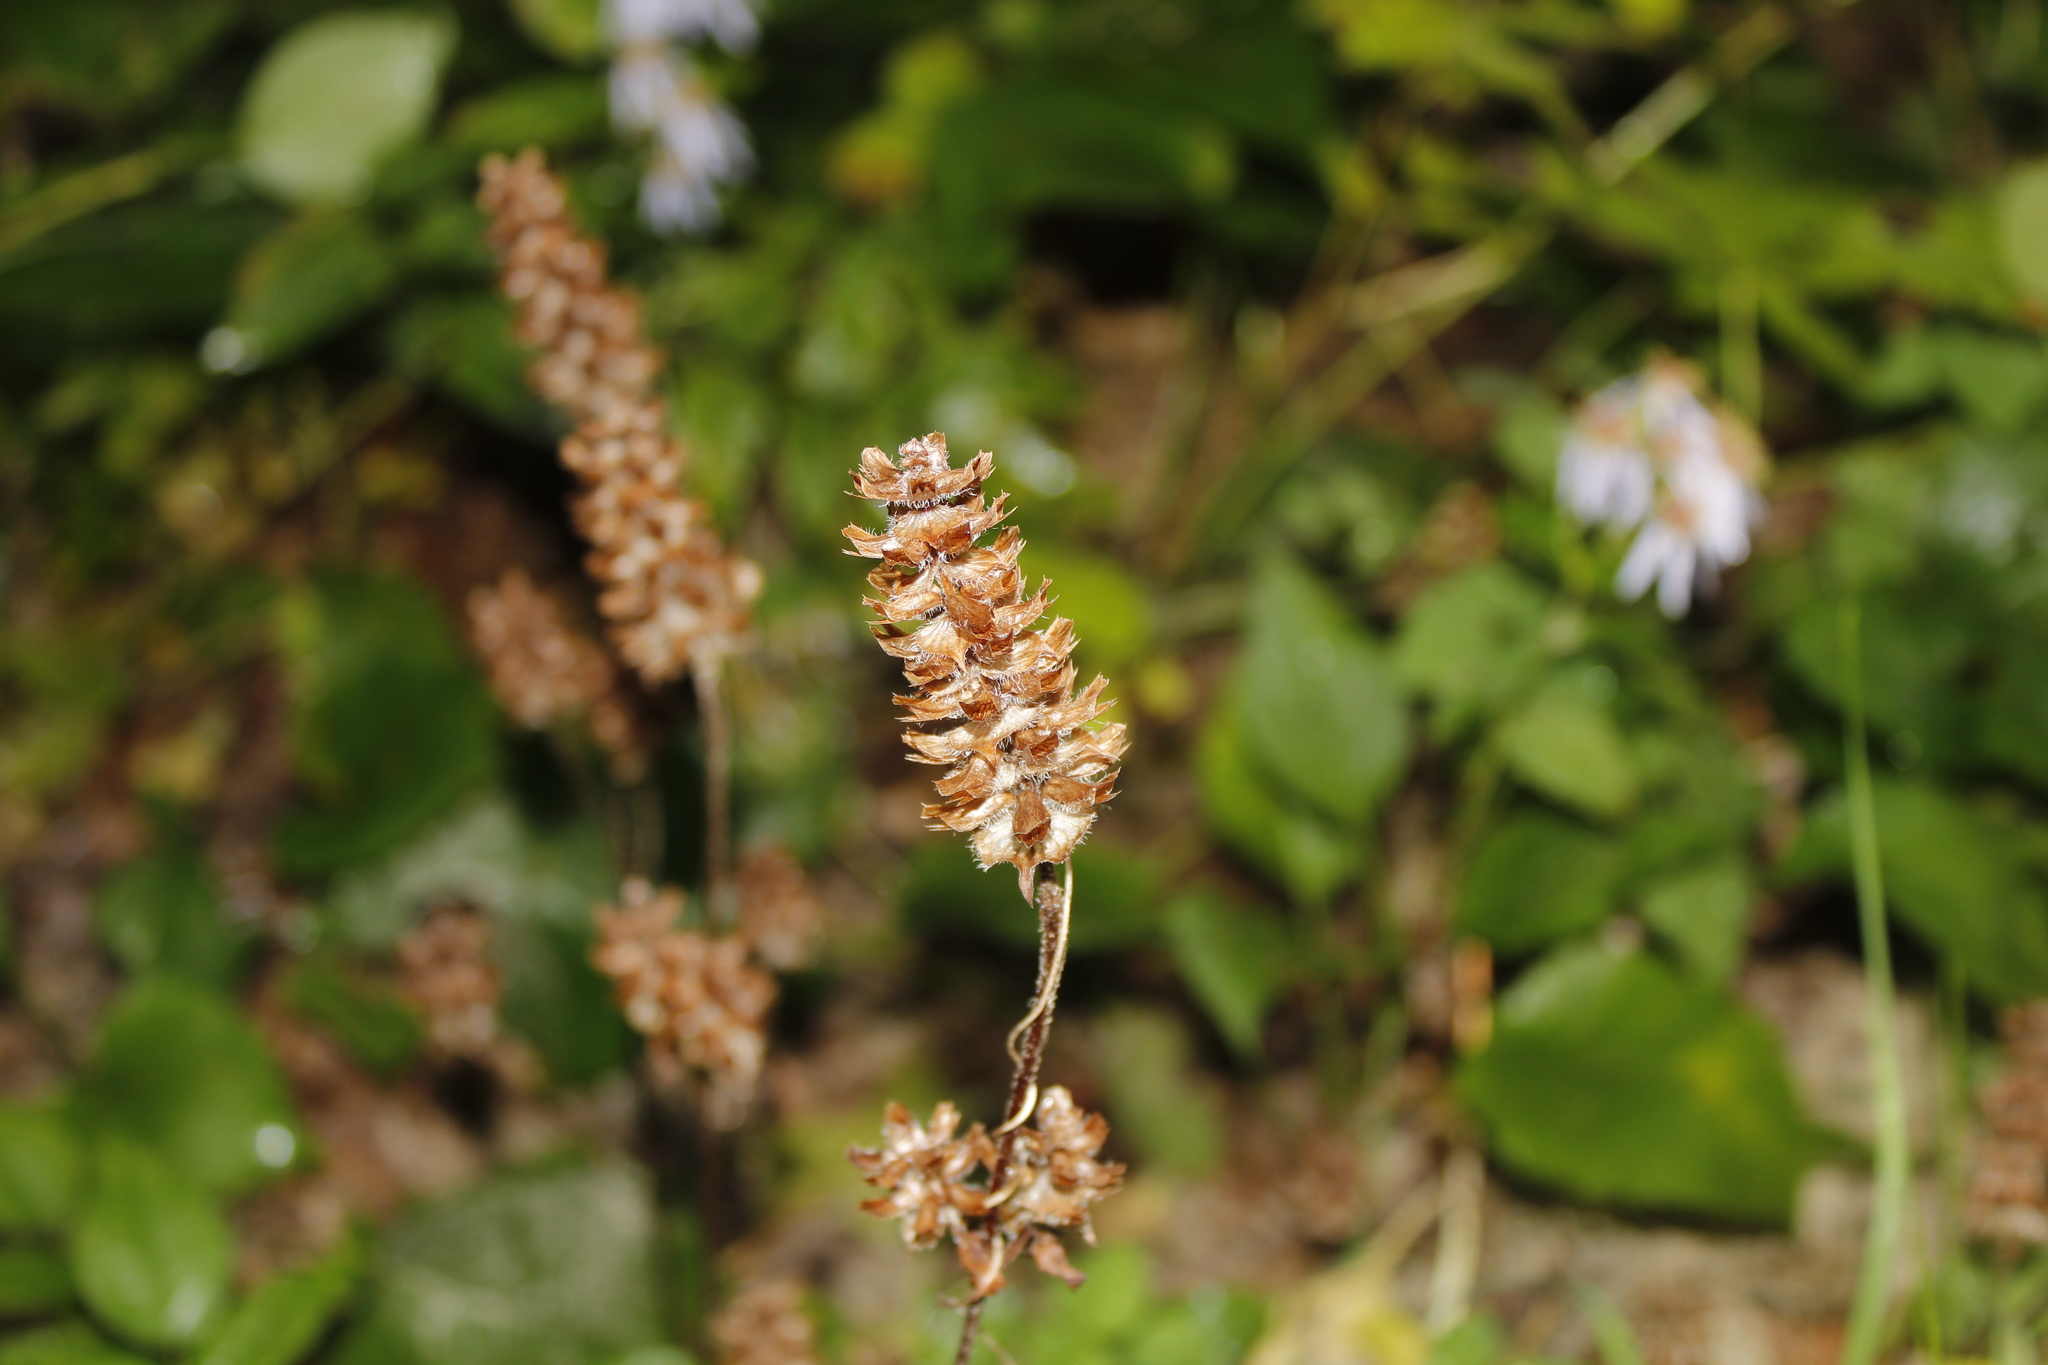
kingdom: Plantae
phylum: Tracheophyta
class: Magnoliopsida
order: Lamiales
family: Lamiaceae
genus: Prunella
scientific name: Prunella vulgaris
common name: Heal-all
